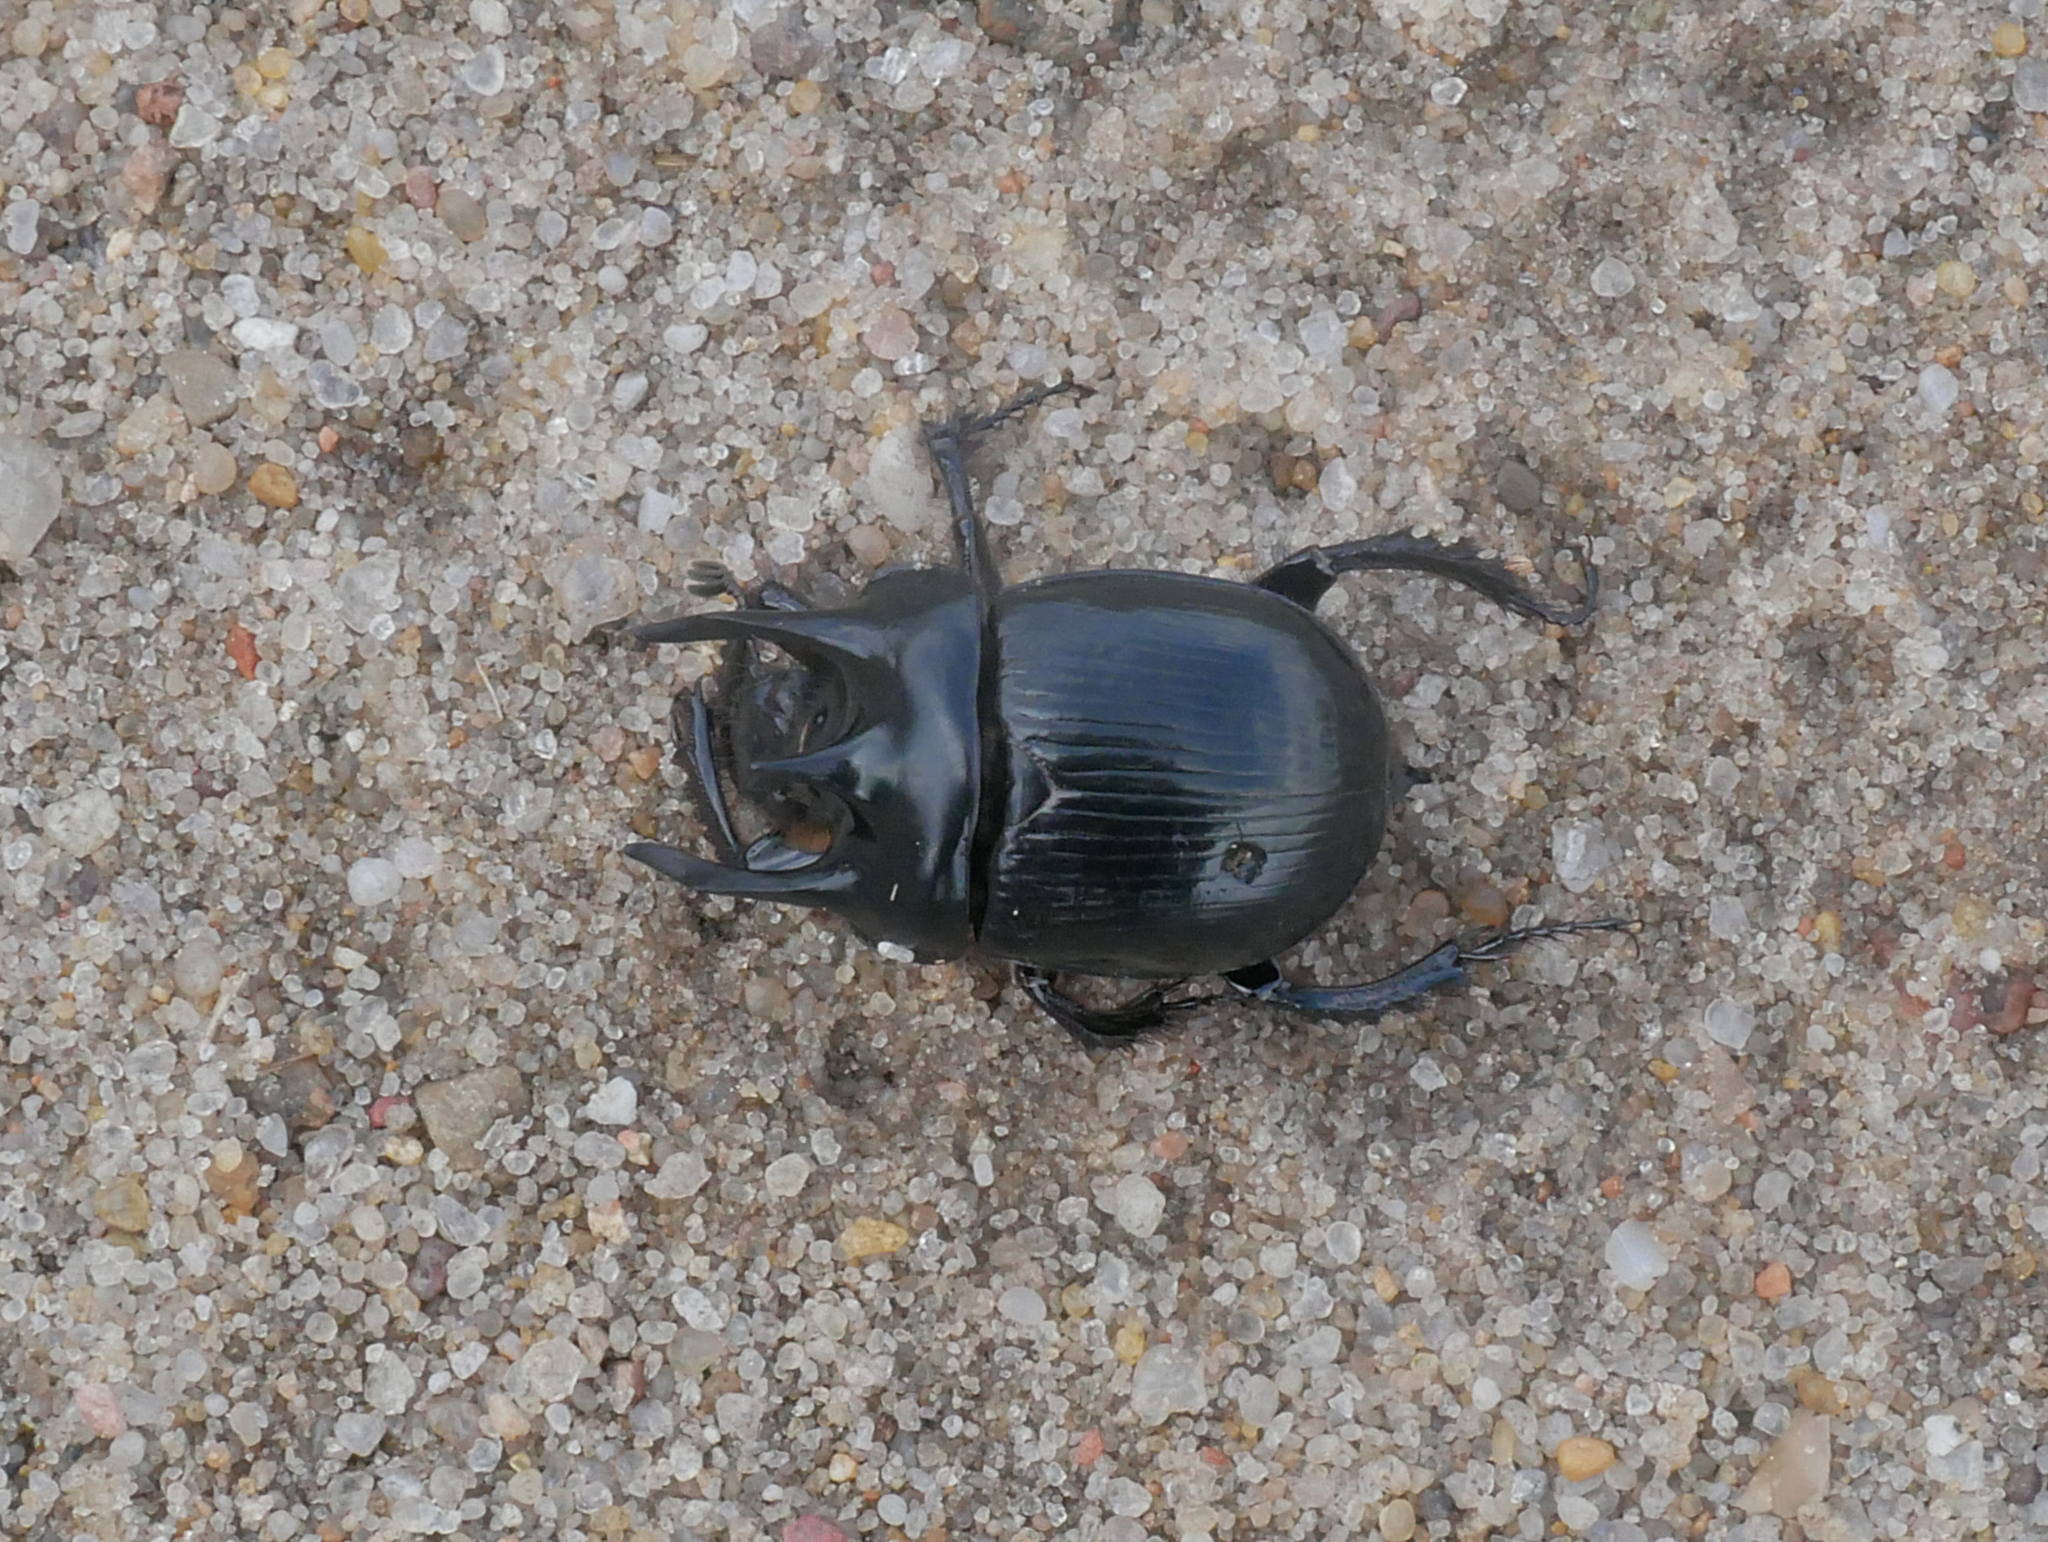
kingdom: Animalia
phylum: Arthropoda
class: Insecta
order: Coleoptera
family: Geotrupidae
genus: Typhaeus
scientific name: Typhaeus typhoeus
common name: Minotaur beetle
